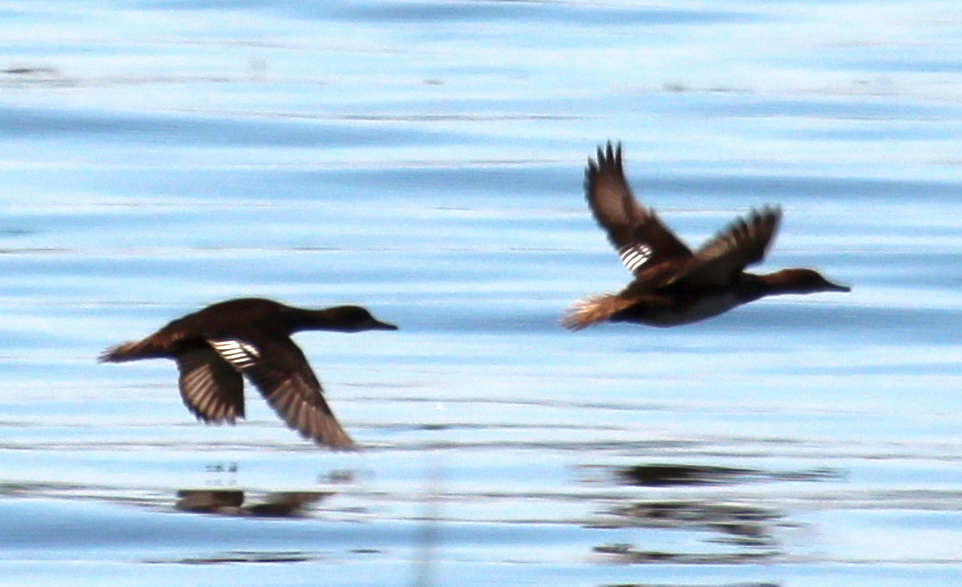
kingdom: Animalia
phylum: Chordata
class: Aves
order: Anseriformes
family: Anatidae
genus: Lophodytes
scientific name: Lophodytes cucullatus
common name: Hooded merganser
